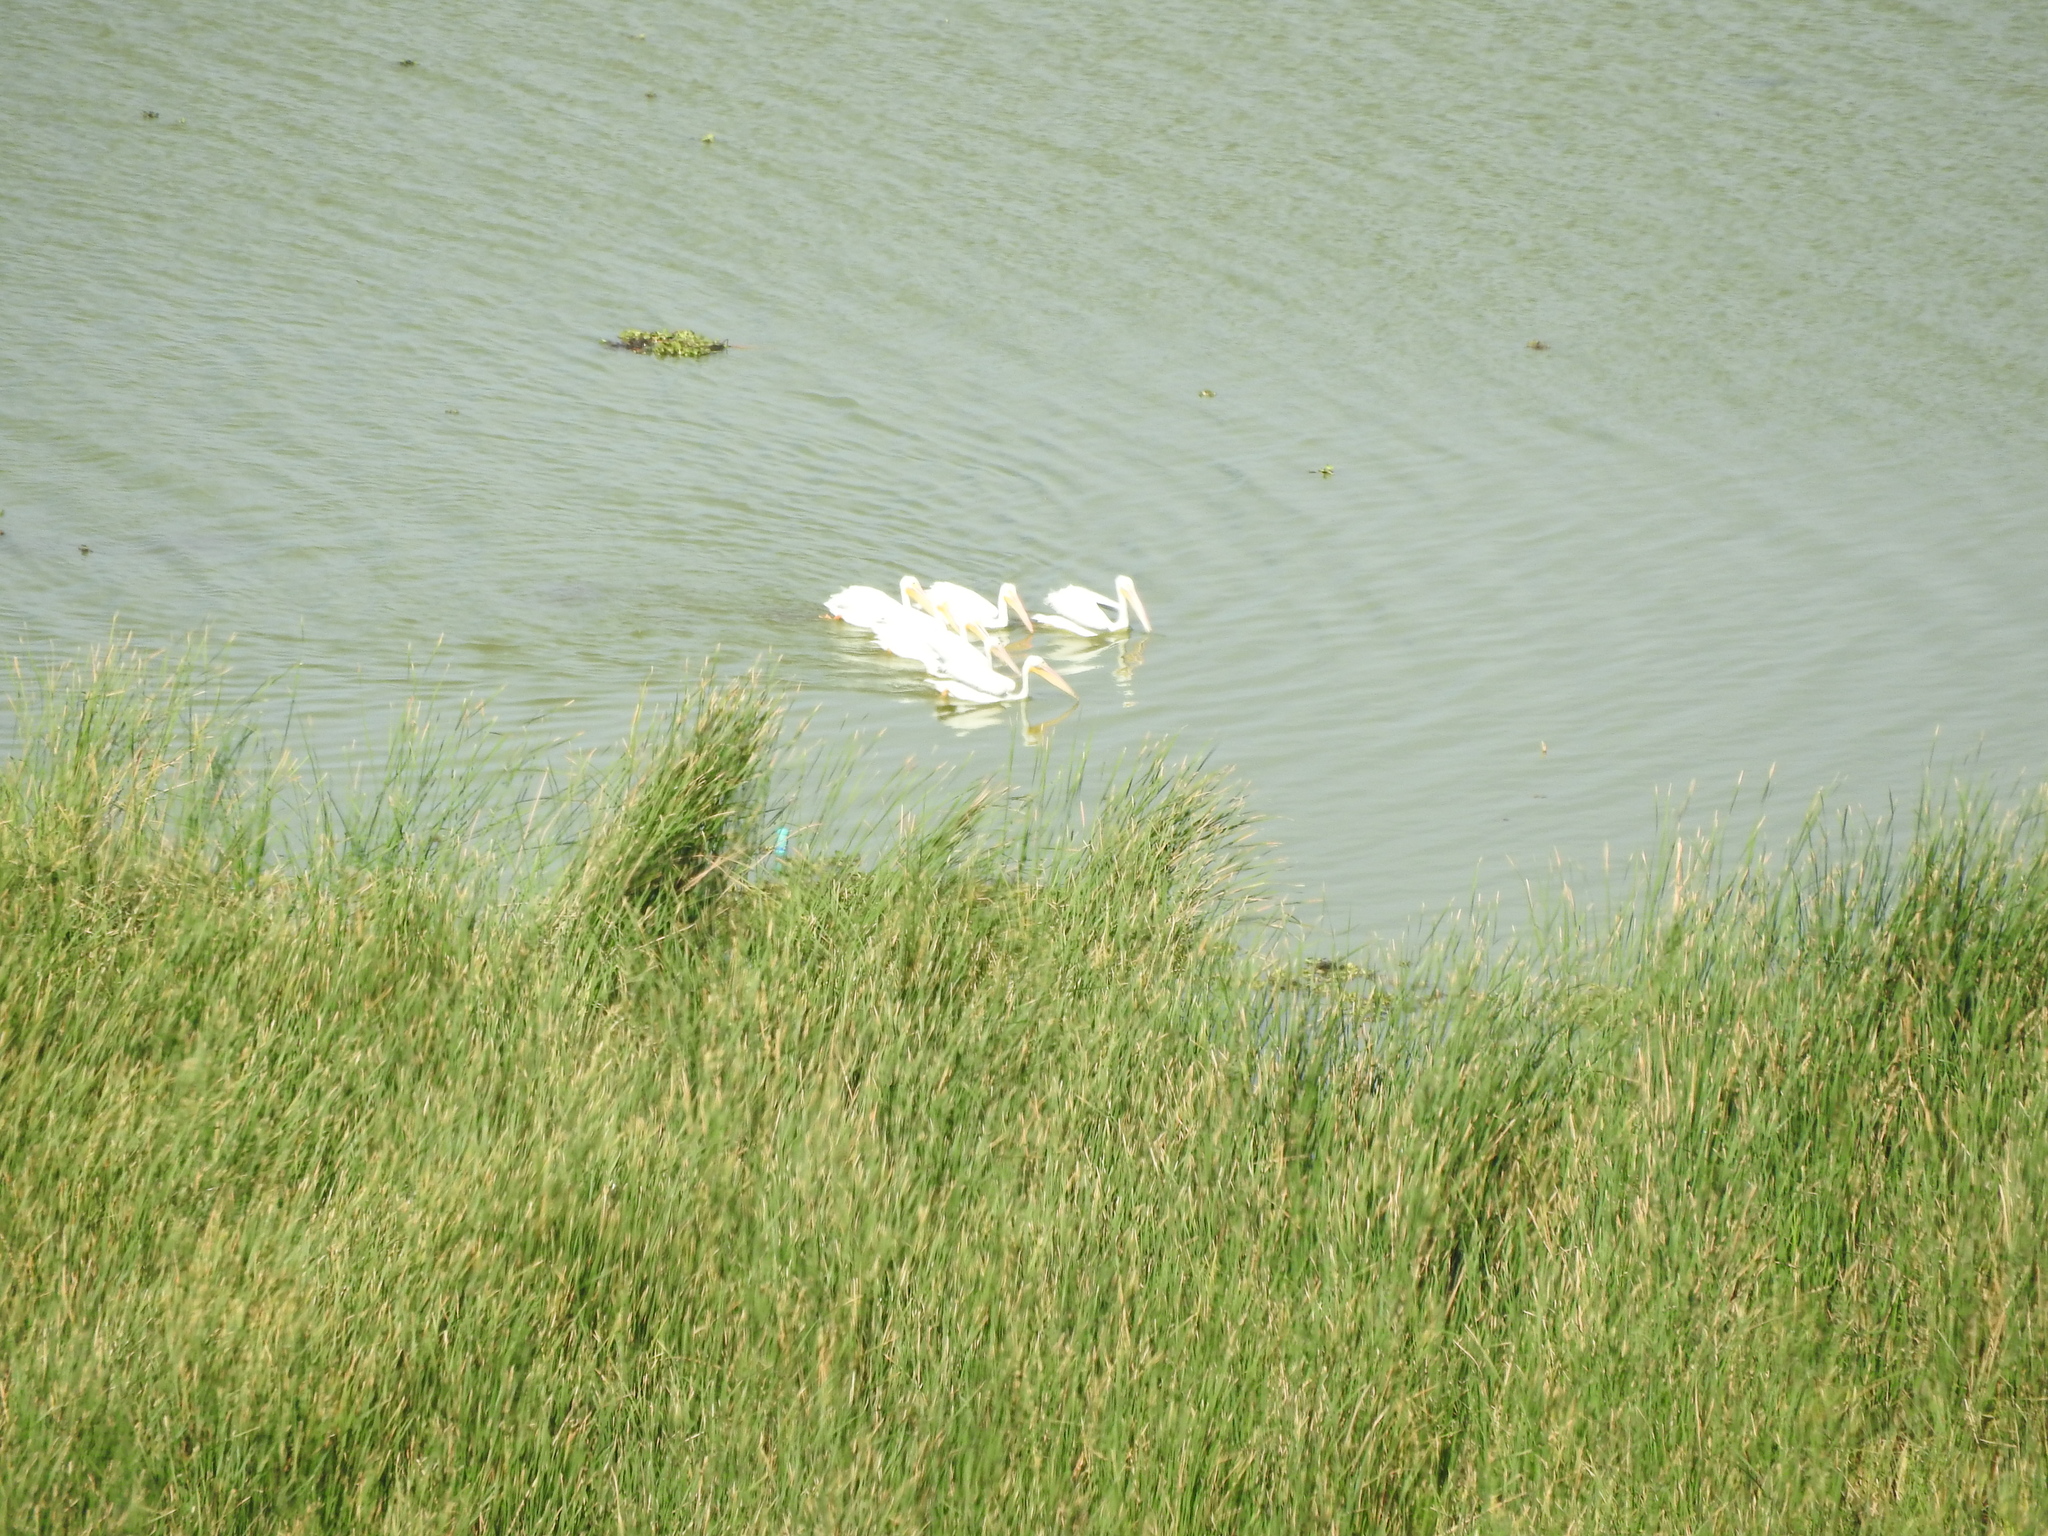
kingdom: Animalia
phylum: Chordata
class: Aves
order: Pelecaniformes
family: Pelecanidae
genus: Pelecanus
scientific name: Pelecanus erythrorhynchos
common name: American white pelican
